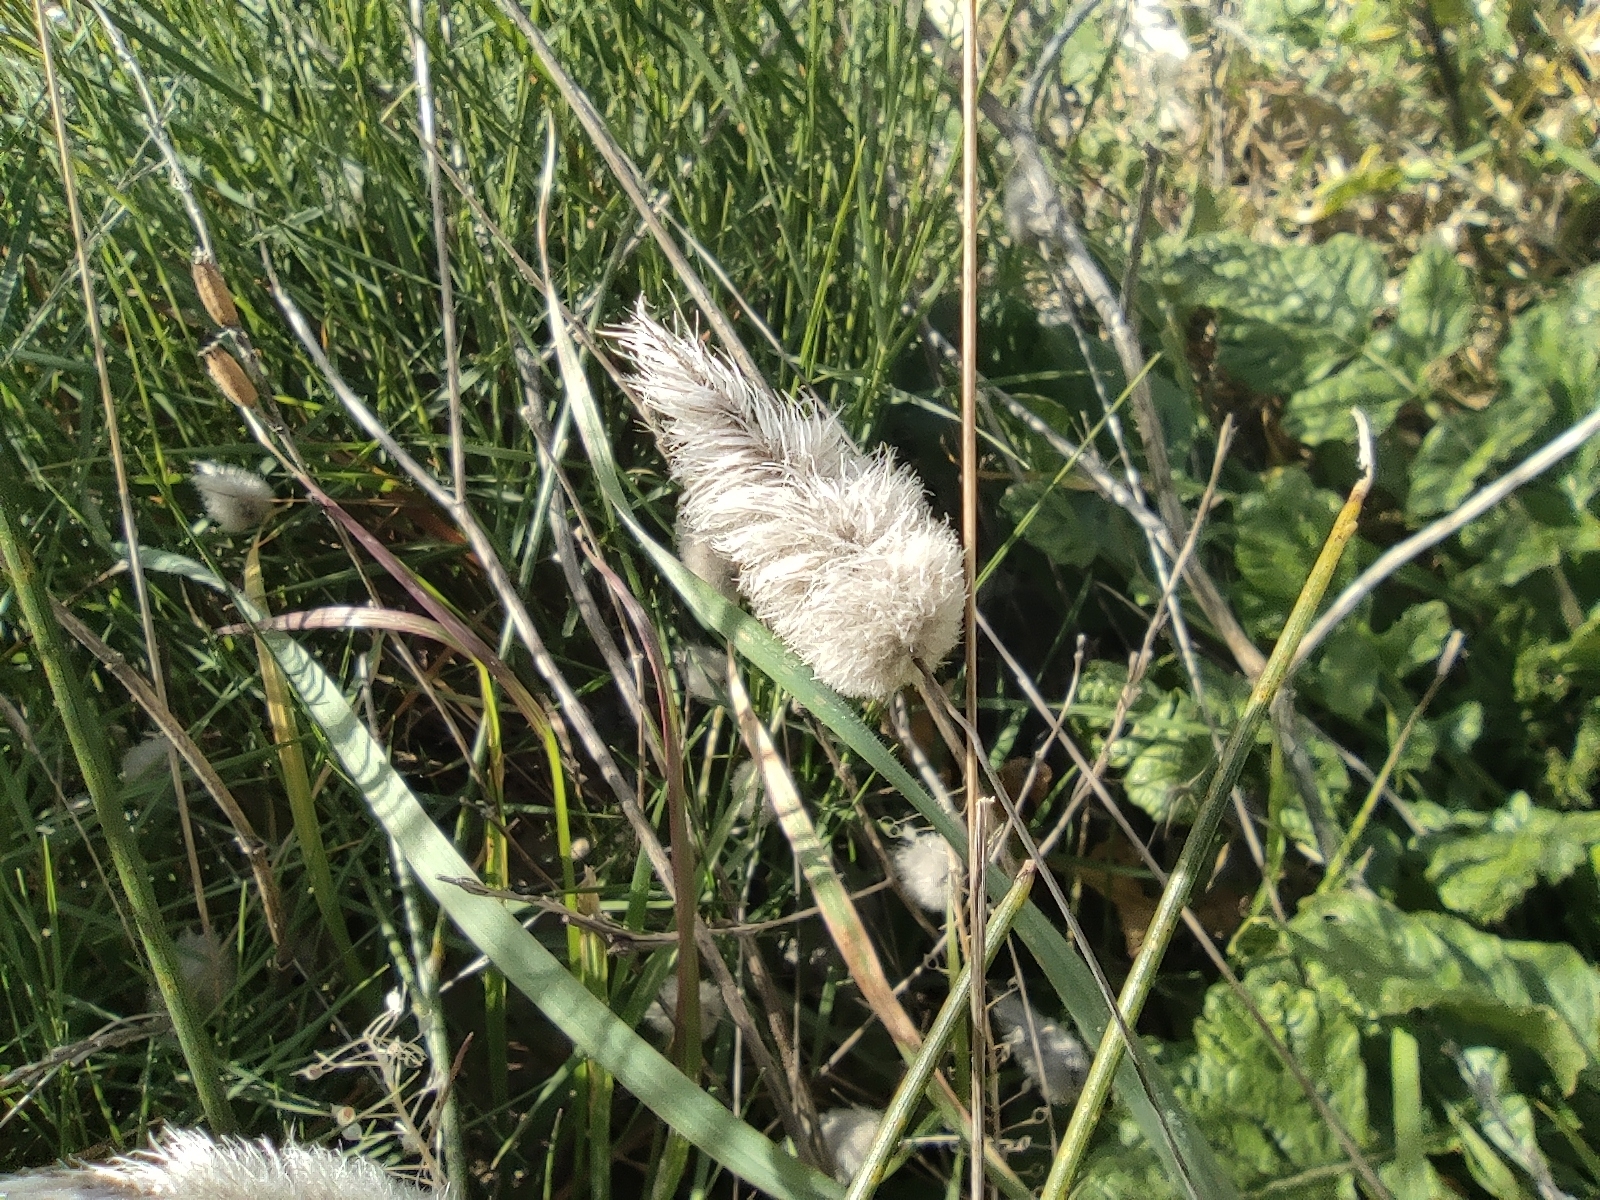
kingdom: Plantae
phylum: Tracheophyta
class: Liliopsida
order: Poales
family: Poaceae
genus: Lagurus
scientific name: Lagurus ovatus
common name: Hare's-tail
